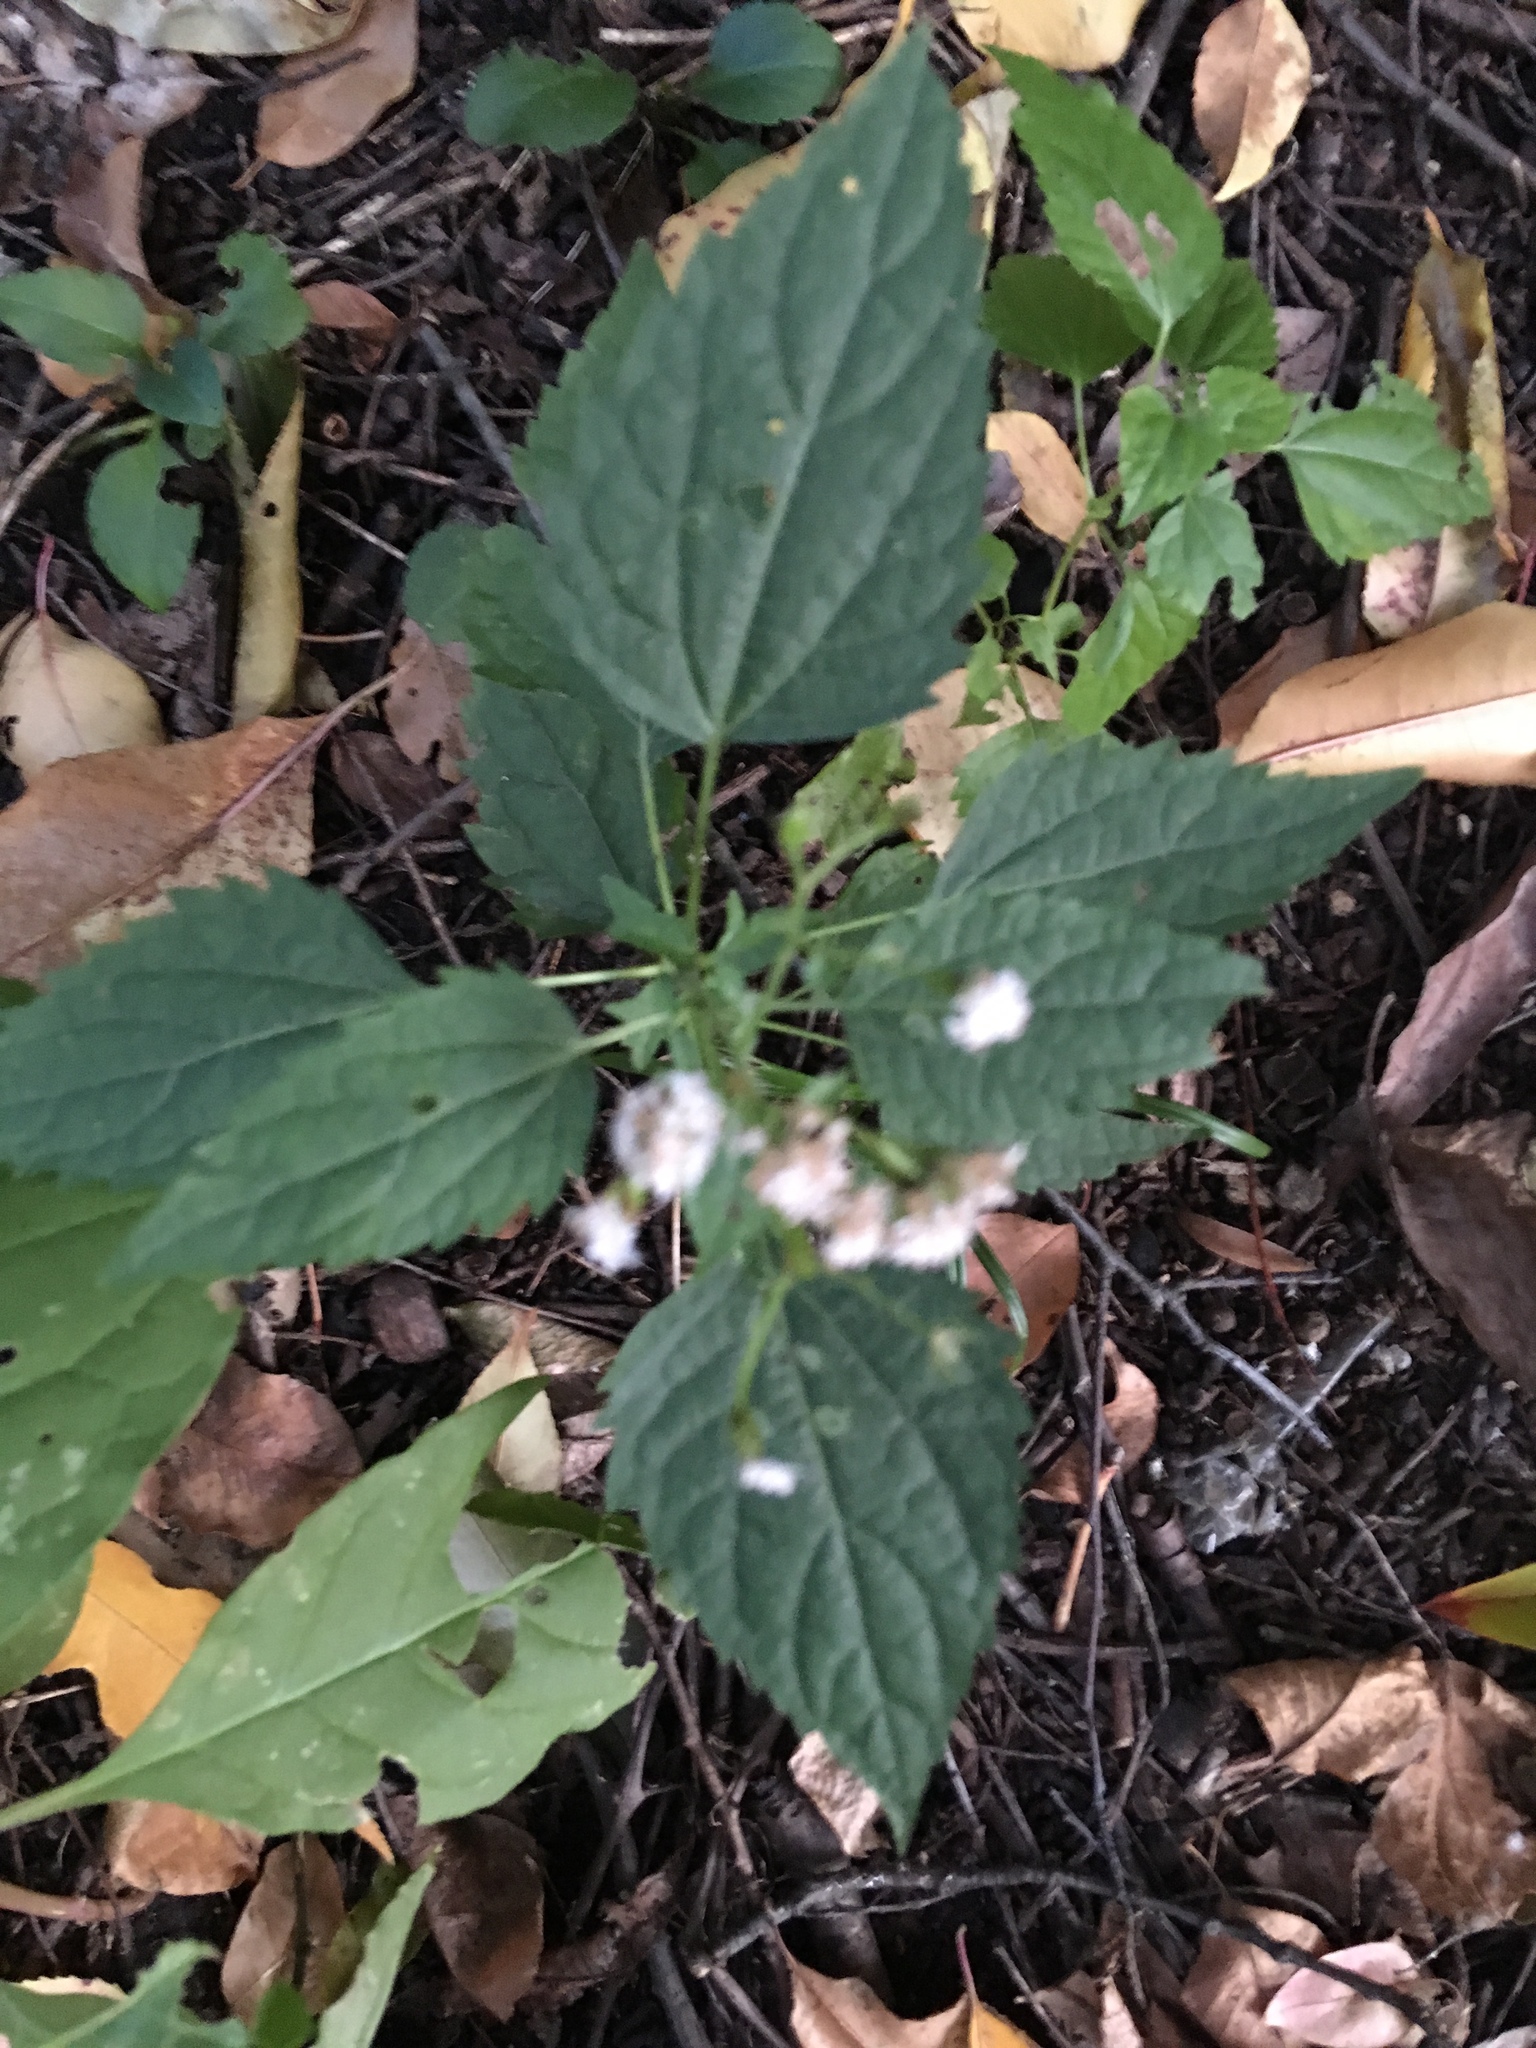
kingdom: Plantae
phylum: Tracheophyta
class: Magnoliopsida
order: Asterales
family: Asteraceae
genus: Ageratina
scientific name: Ageratina altissima
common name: White snakeroot
